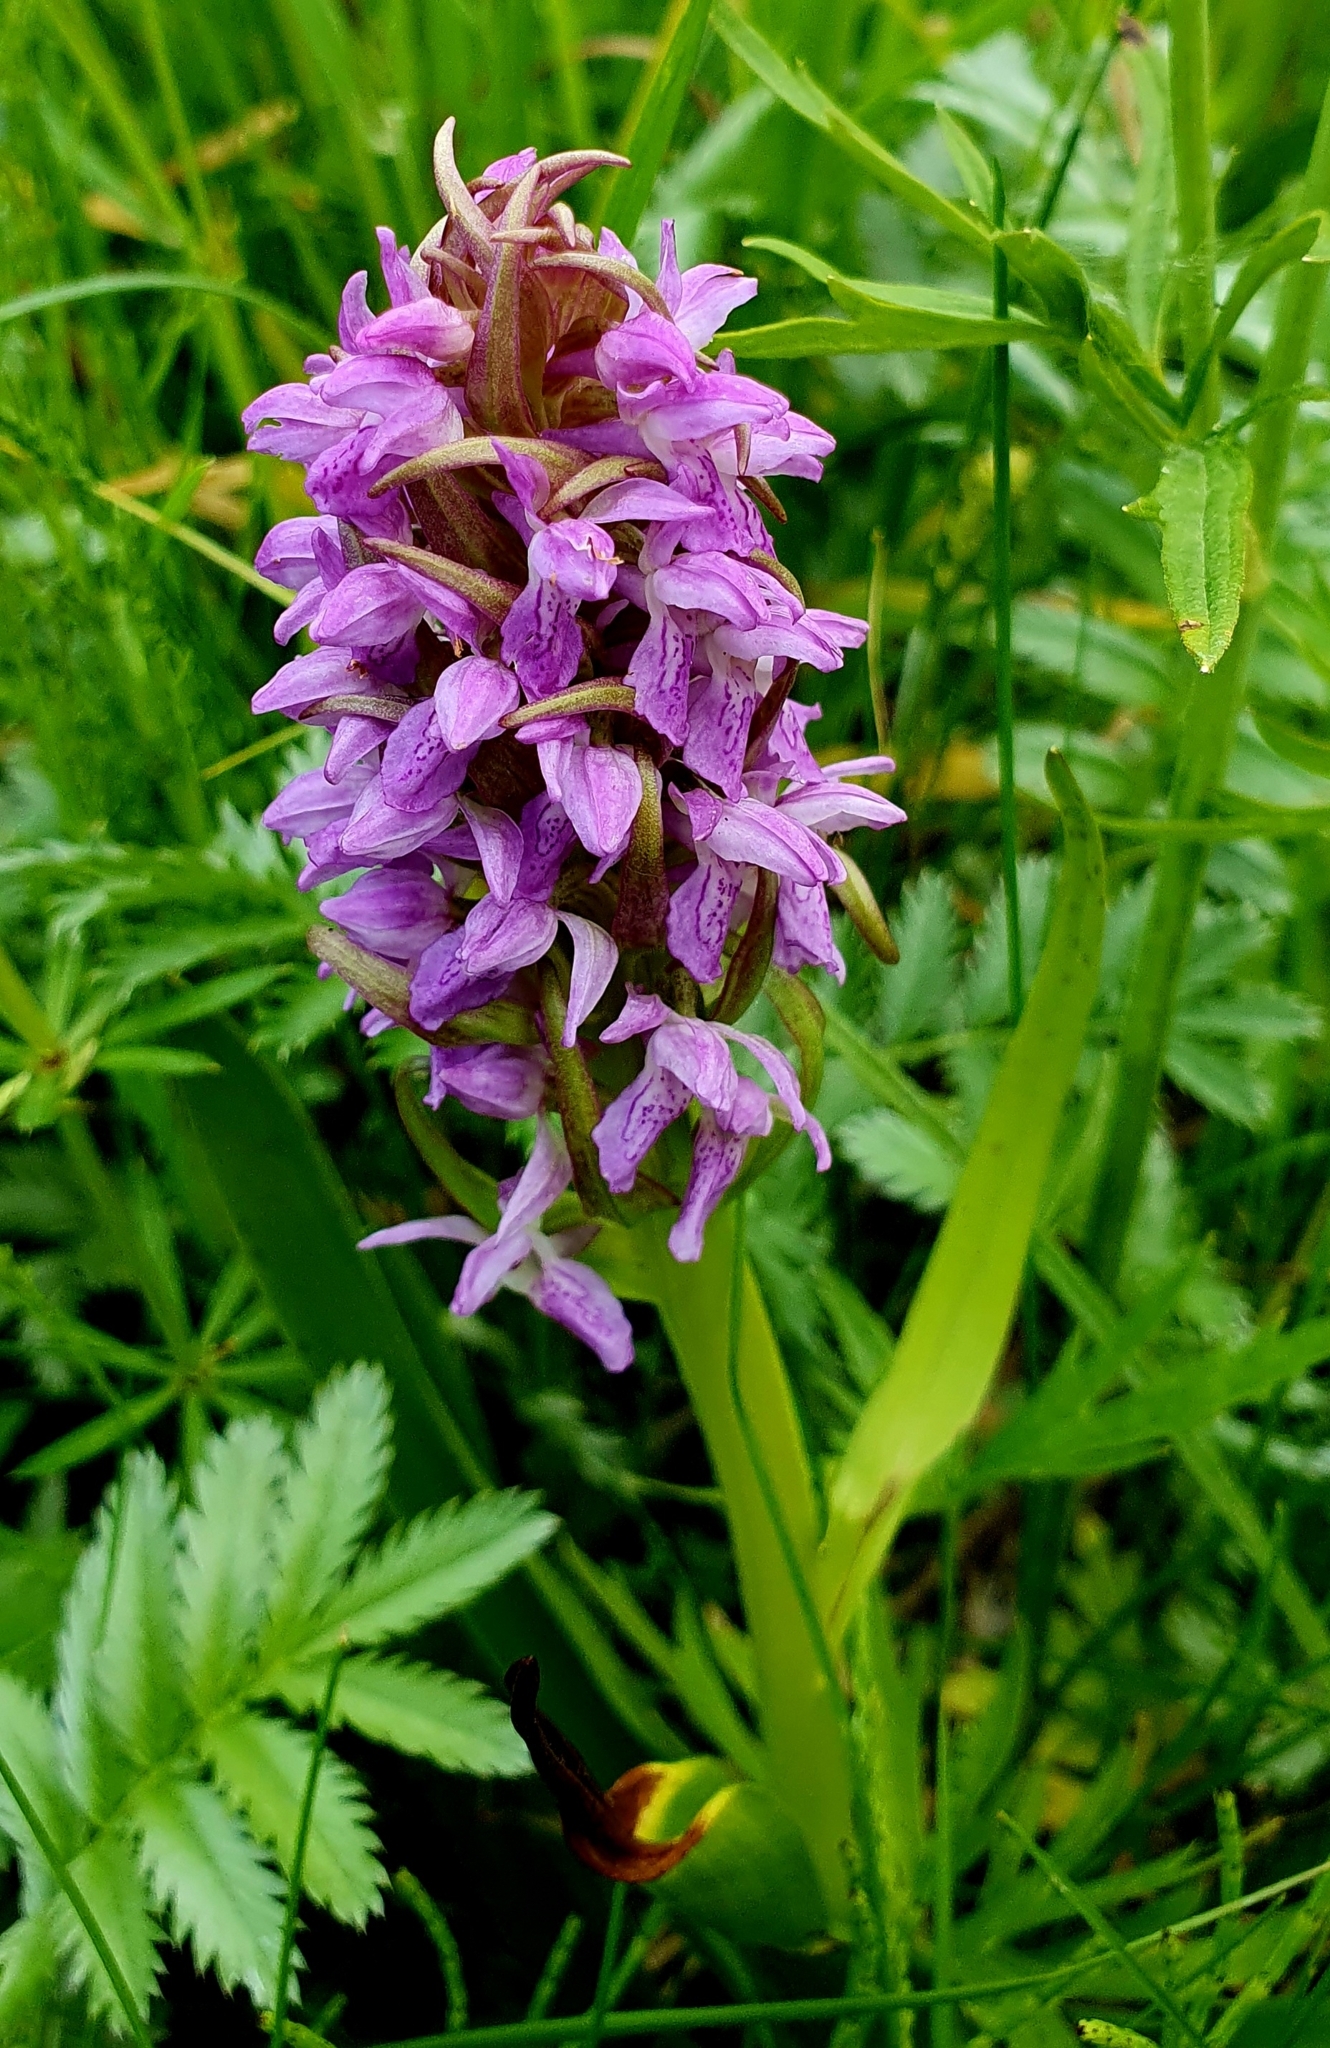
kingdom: Plantae
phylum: Tracheophyta
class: Liliopsida
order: Asparagales
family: Orchidaceae
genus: Dactylorhiza
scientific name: Dactylorhiza incarnata
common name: Early marsh-orchid
